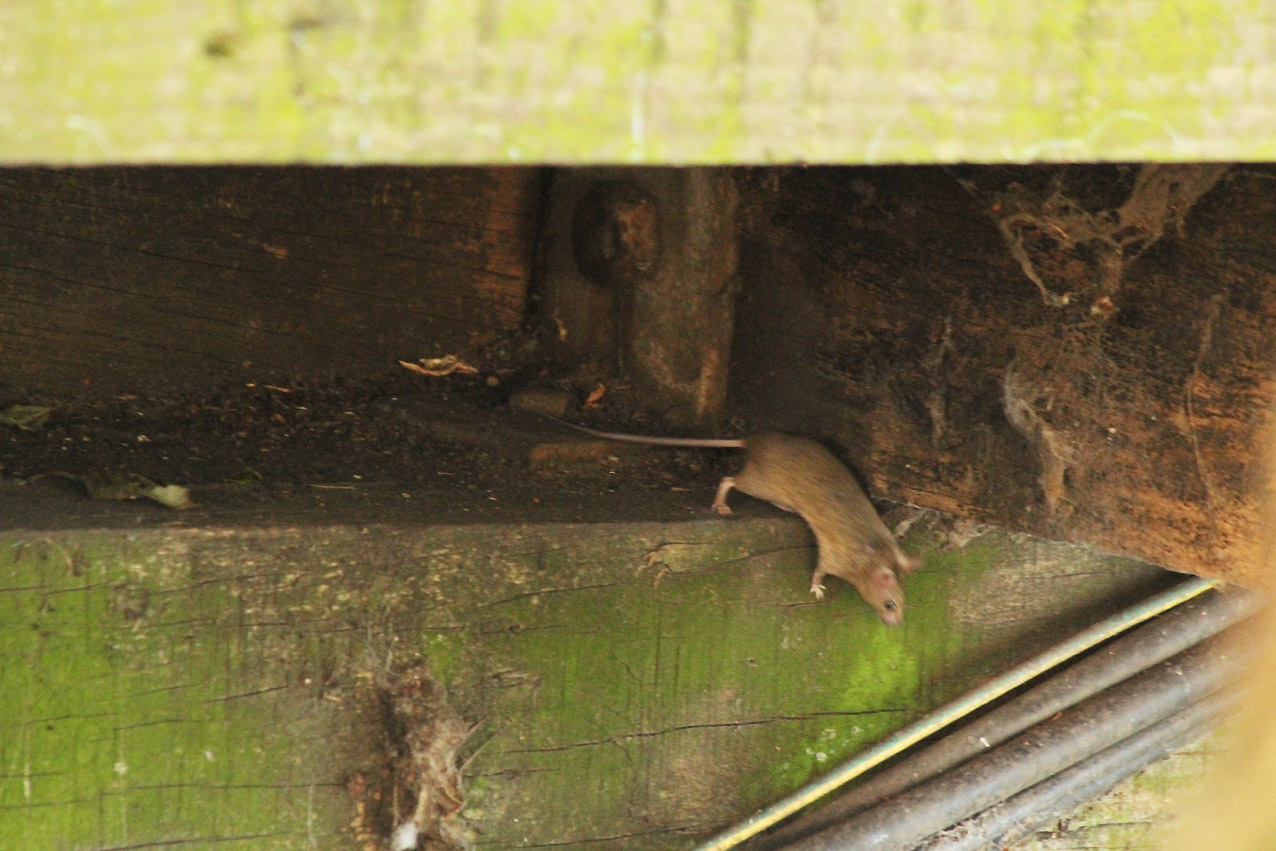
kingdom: Animalia
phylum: Chordata
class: Mammalia
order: Rodentia
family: Muridae
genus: Mus
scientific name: Mus musculus
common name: House mouse
